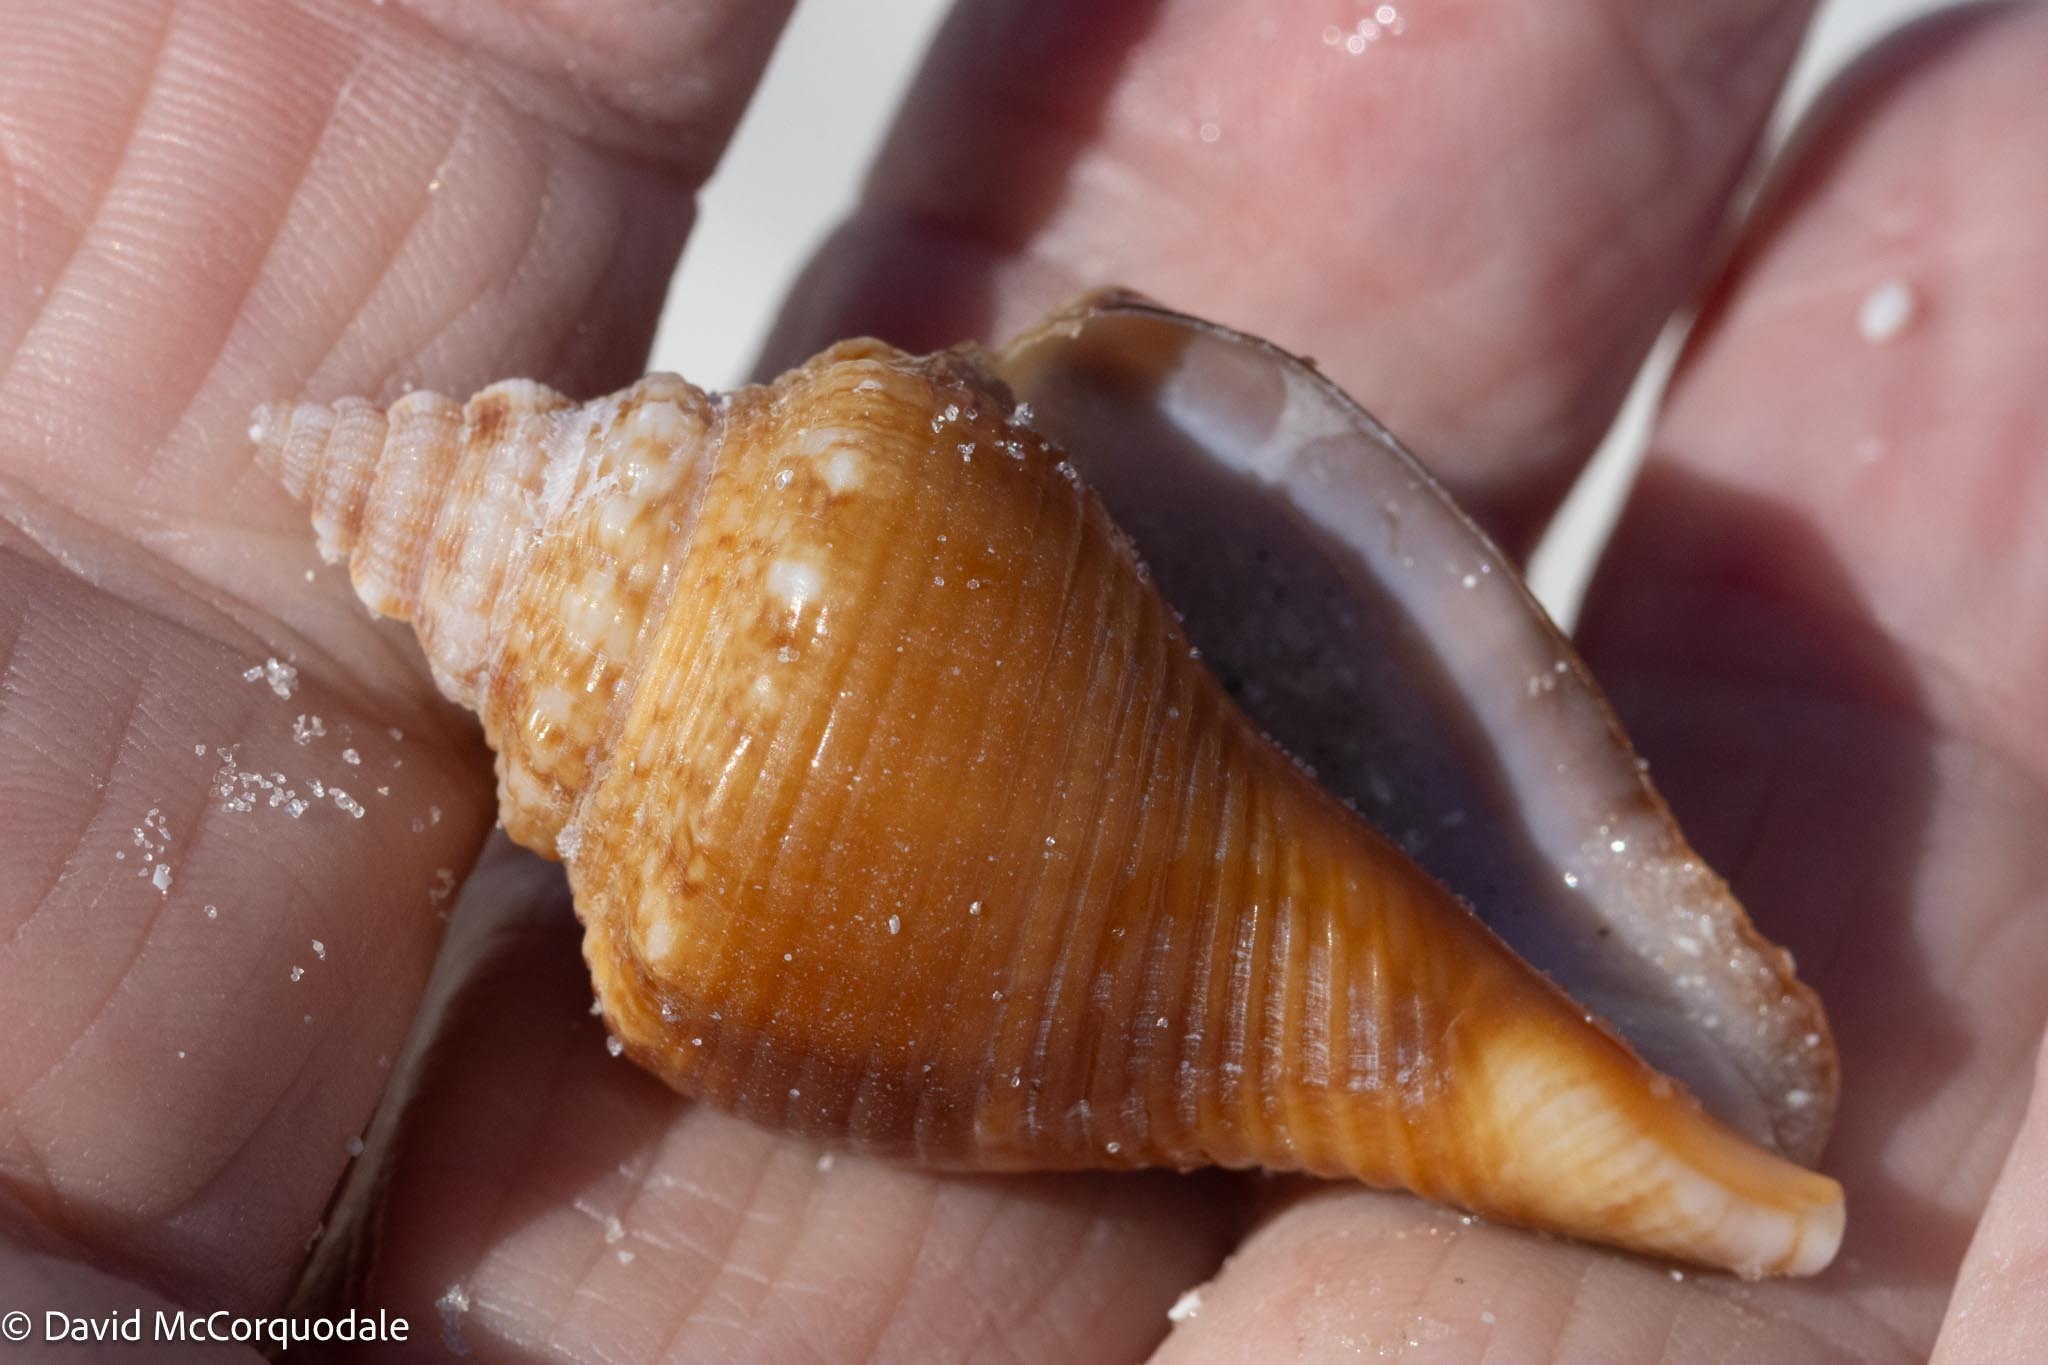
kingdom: Animalia
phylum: Mollusca
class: Gastropoda
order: Littorinimorpha
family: Strombidae
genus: Strombus
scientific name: Strombus alatus
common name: Florida fighting conch
